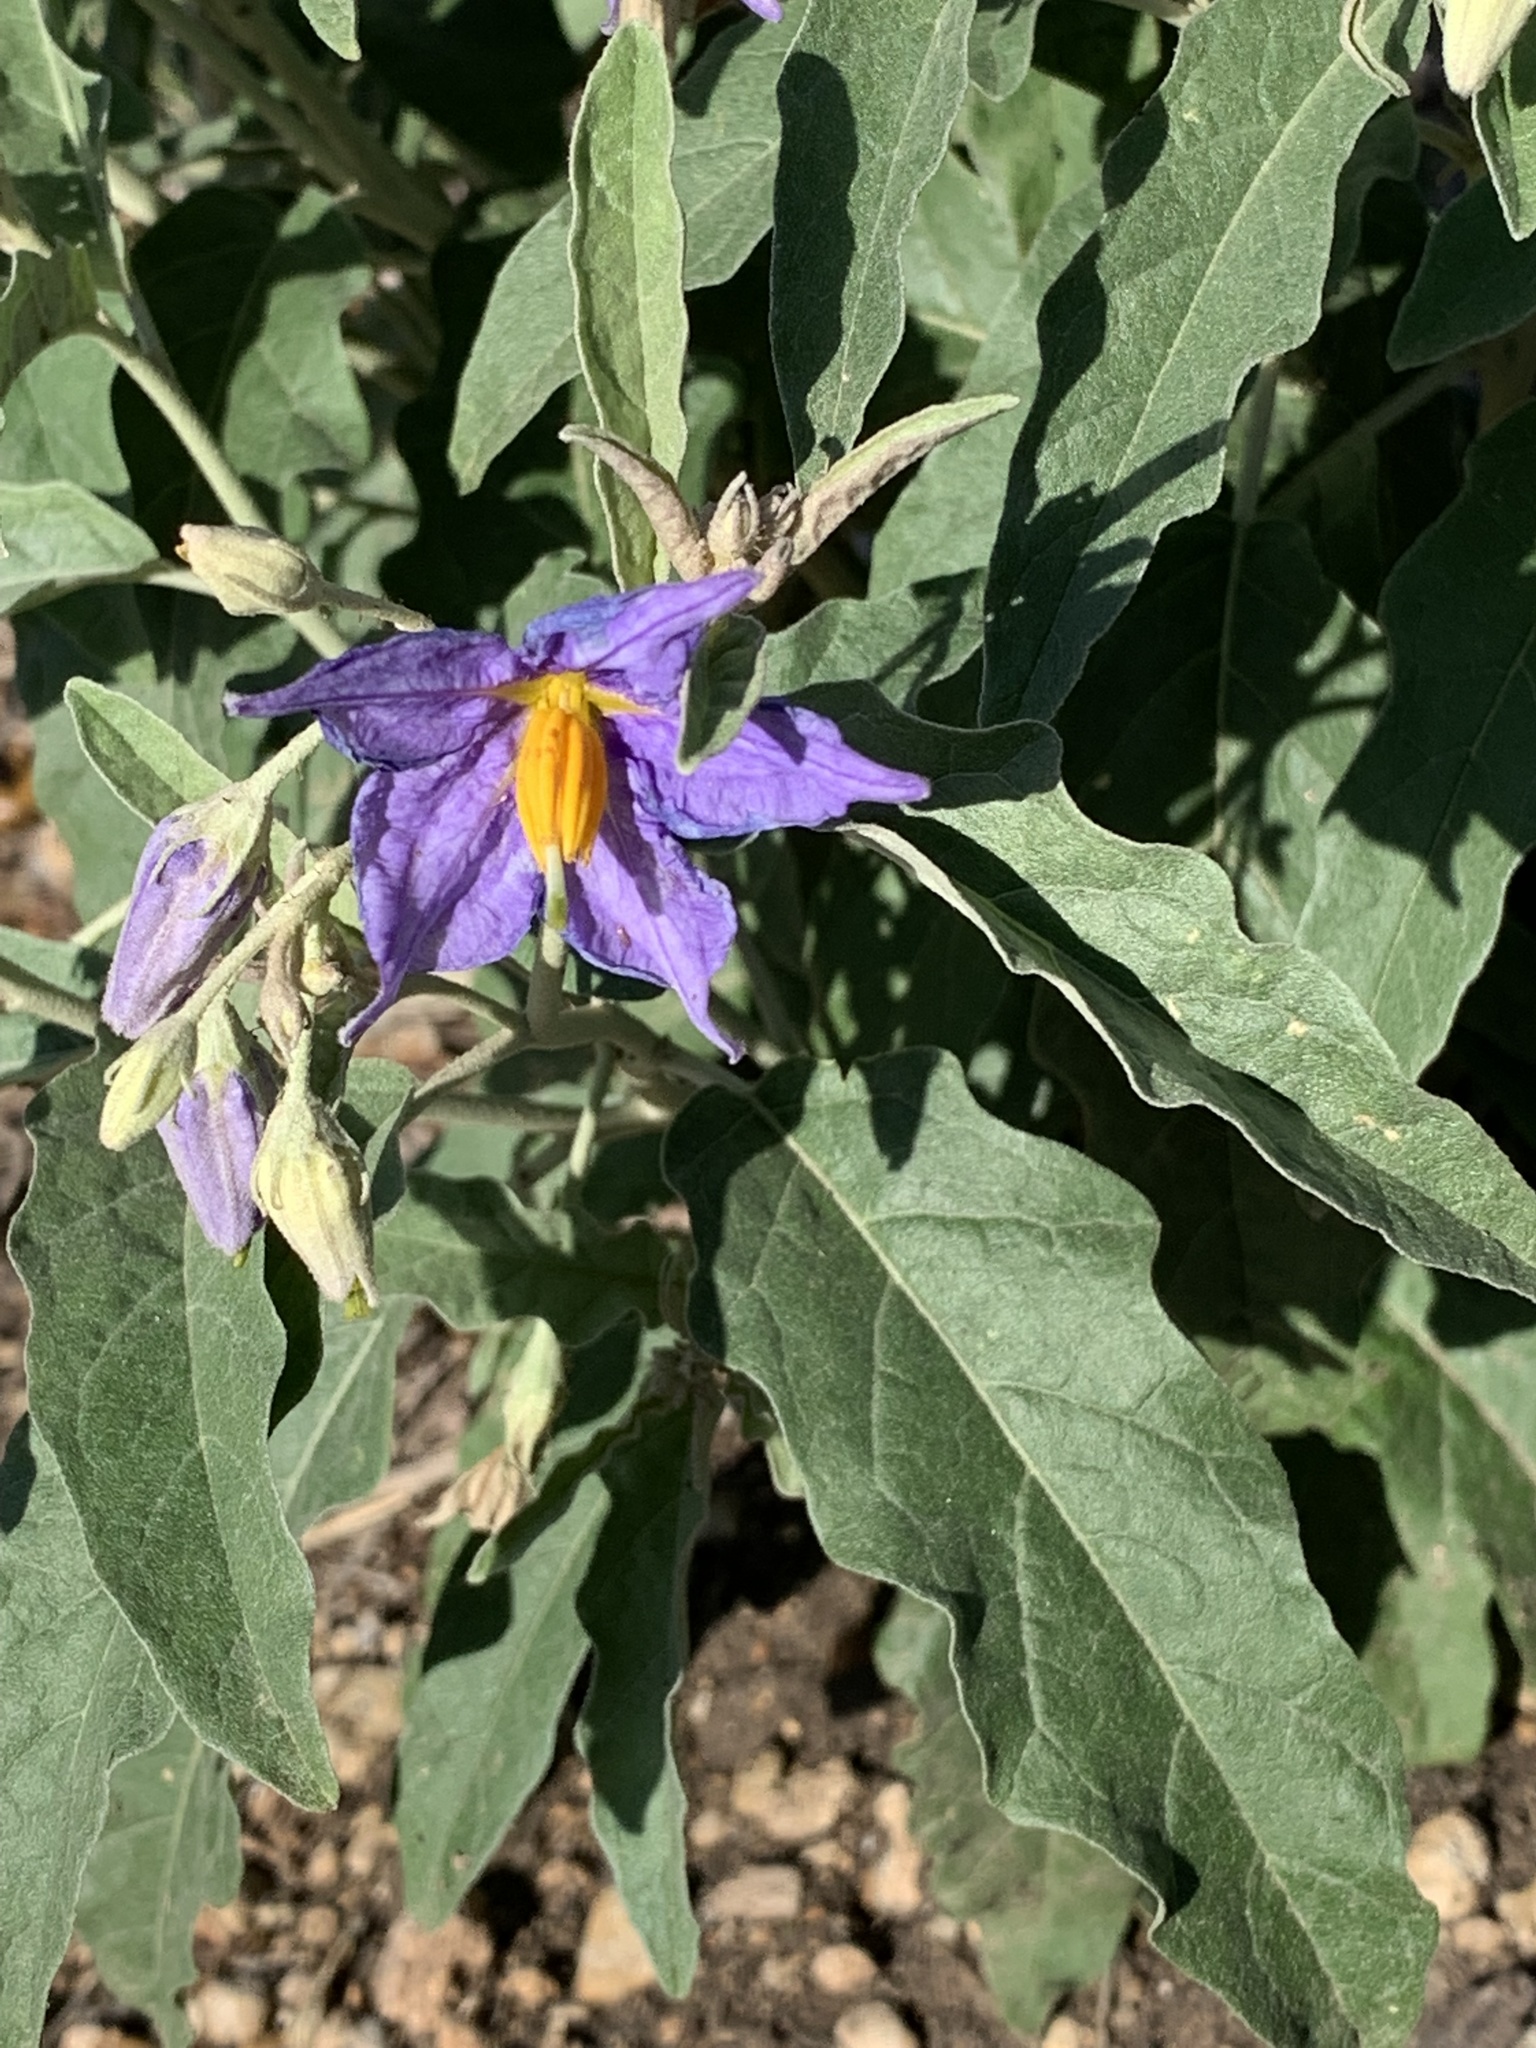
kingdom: Plantae
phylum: Tracheophyta
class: Magnoliopsida
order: Solanales
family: Solanaceae
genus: Solanum
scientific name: Solanum elaeagnifolium
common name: Silverleaf nightshade
